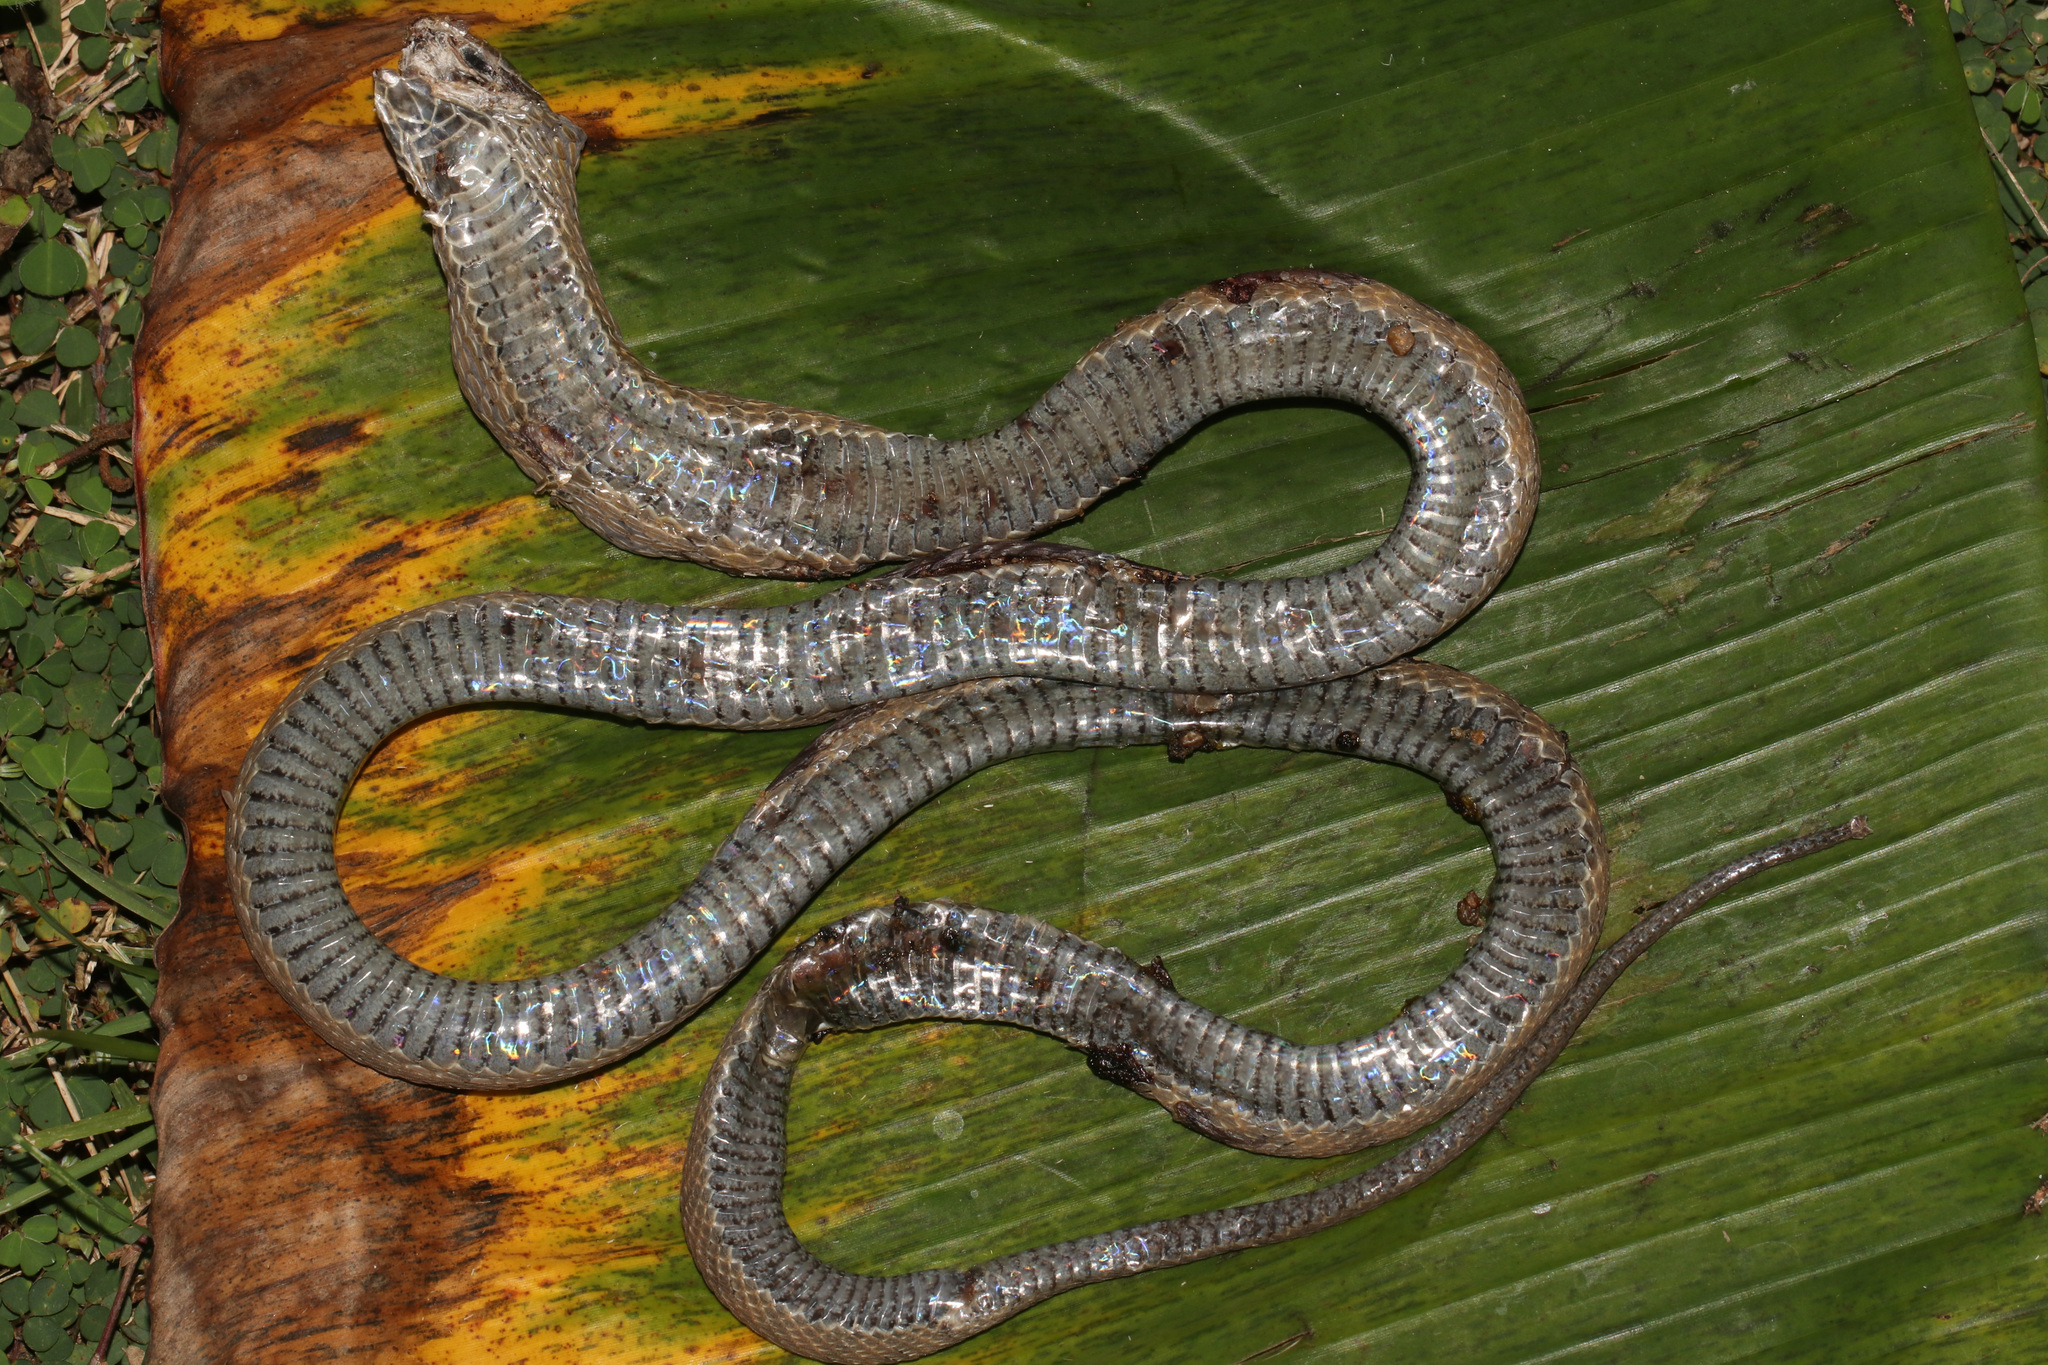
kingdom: Animalia
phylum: Chordata
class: Squamata
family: Colubridae
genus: Dasypeltis
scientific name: Dasypeltis fasciata
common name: Central african egg-eating snake
